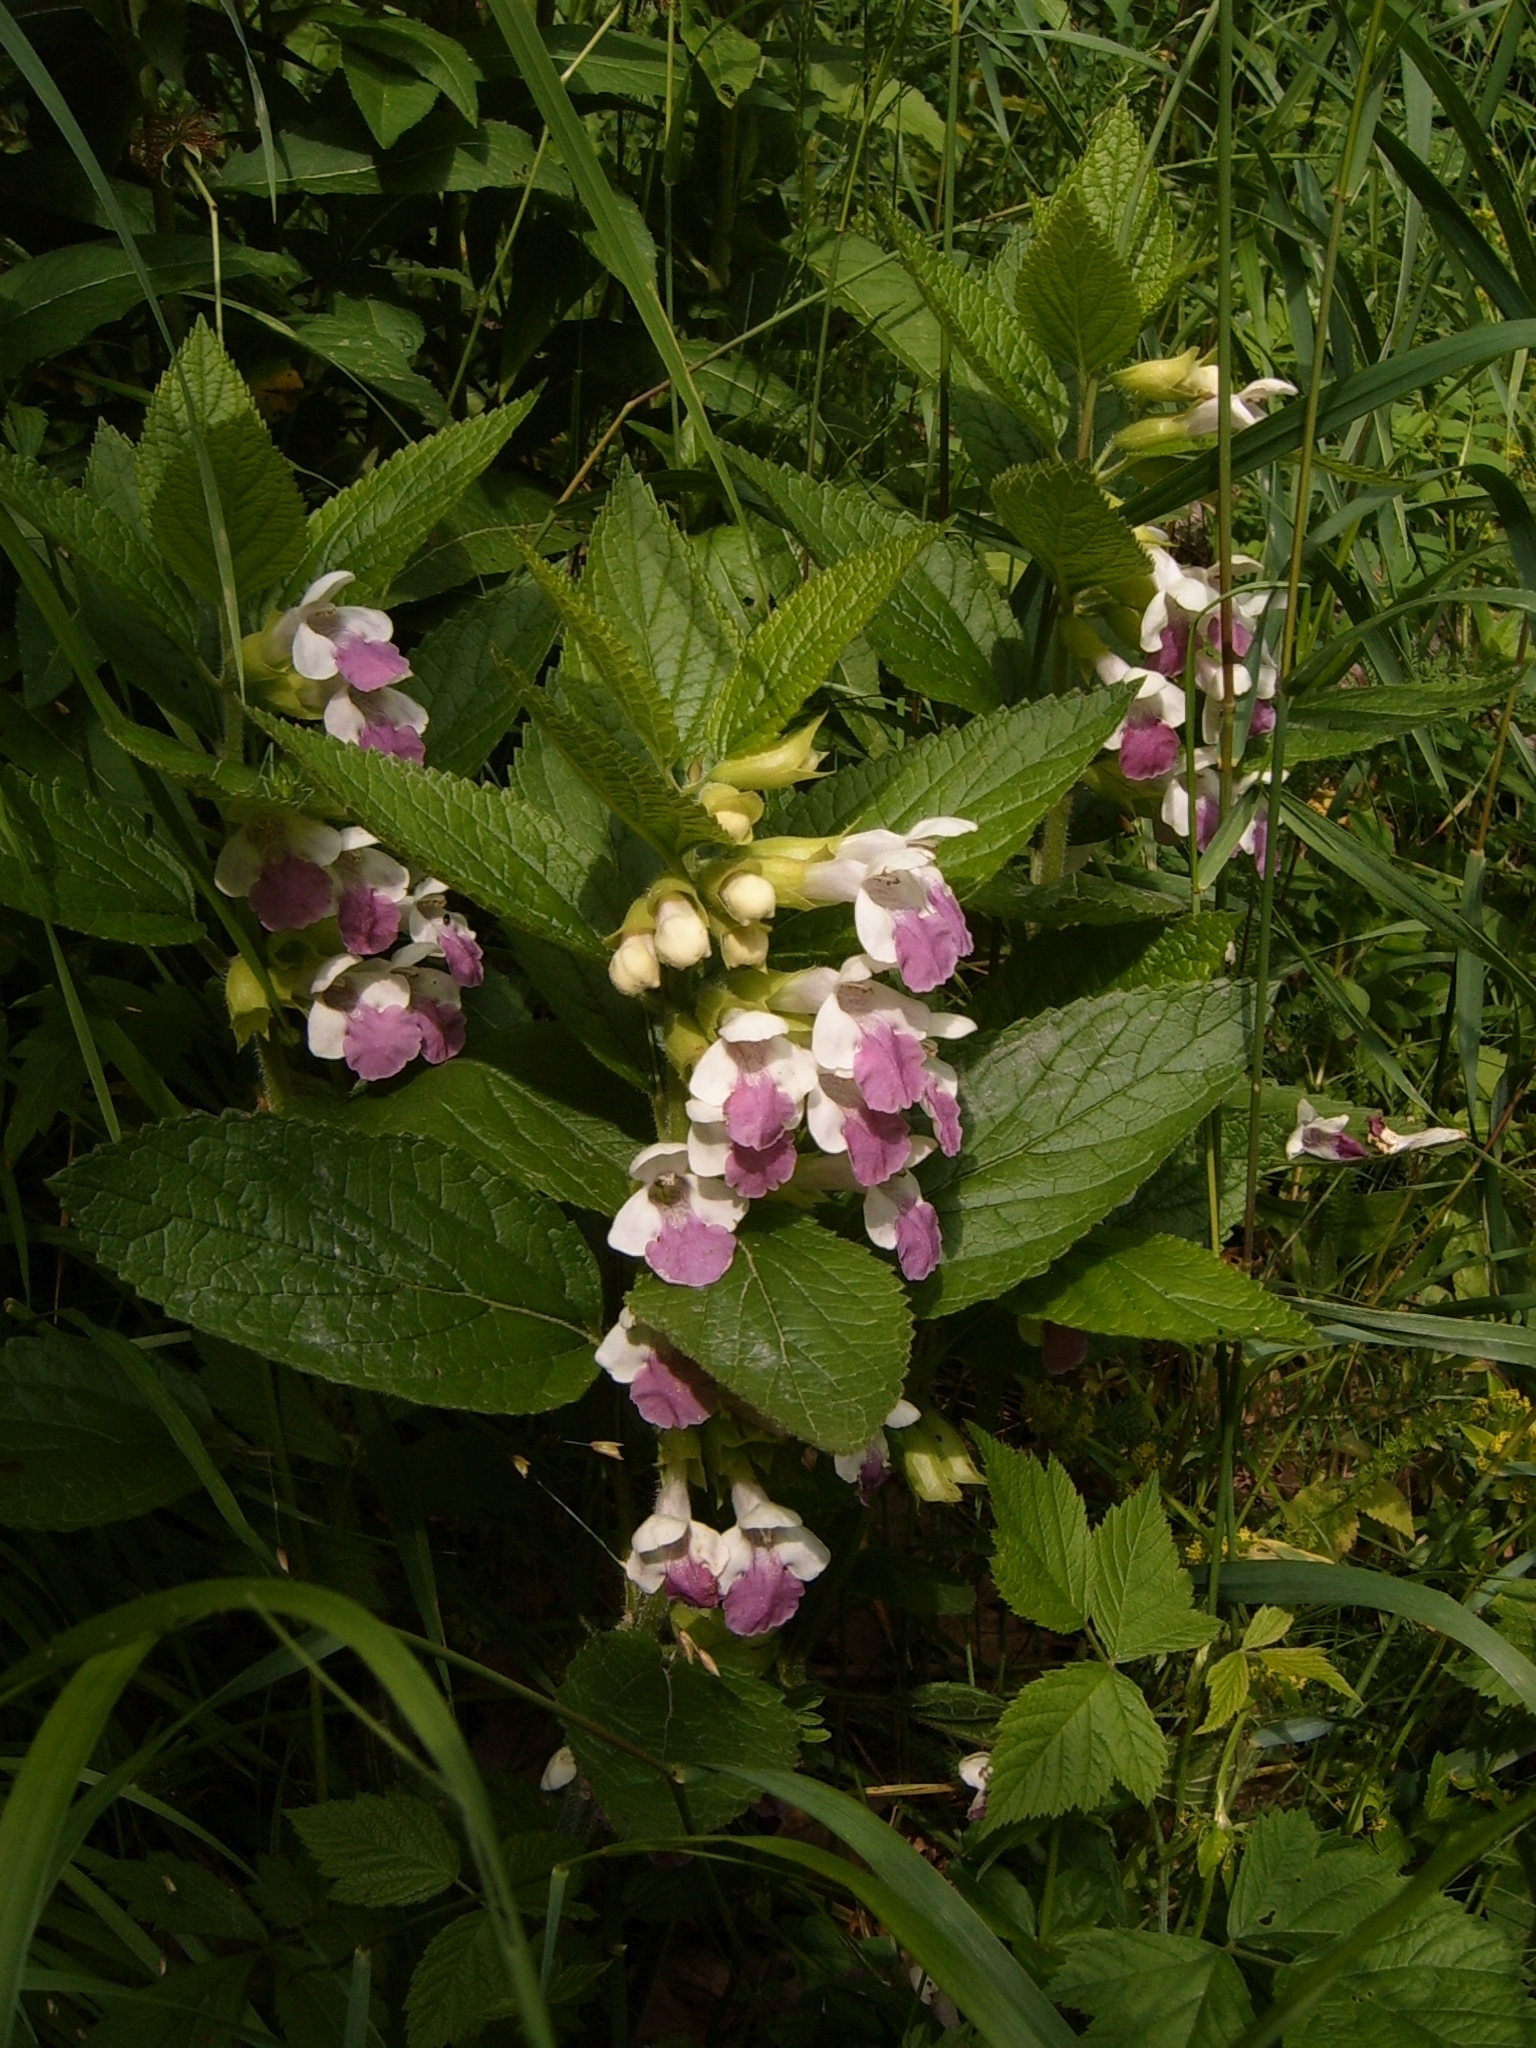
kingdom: Plantae
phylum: Tracheophyta
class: Magnoliopsida
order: Lamiales
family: Lamiaceae
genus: Melittis
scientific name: Melittis melissophyllum
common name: Bastard balm
